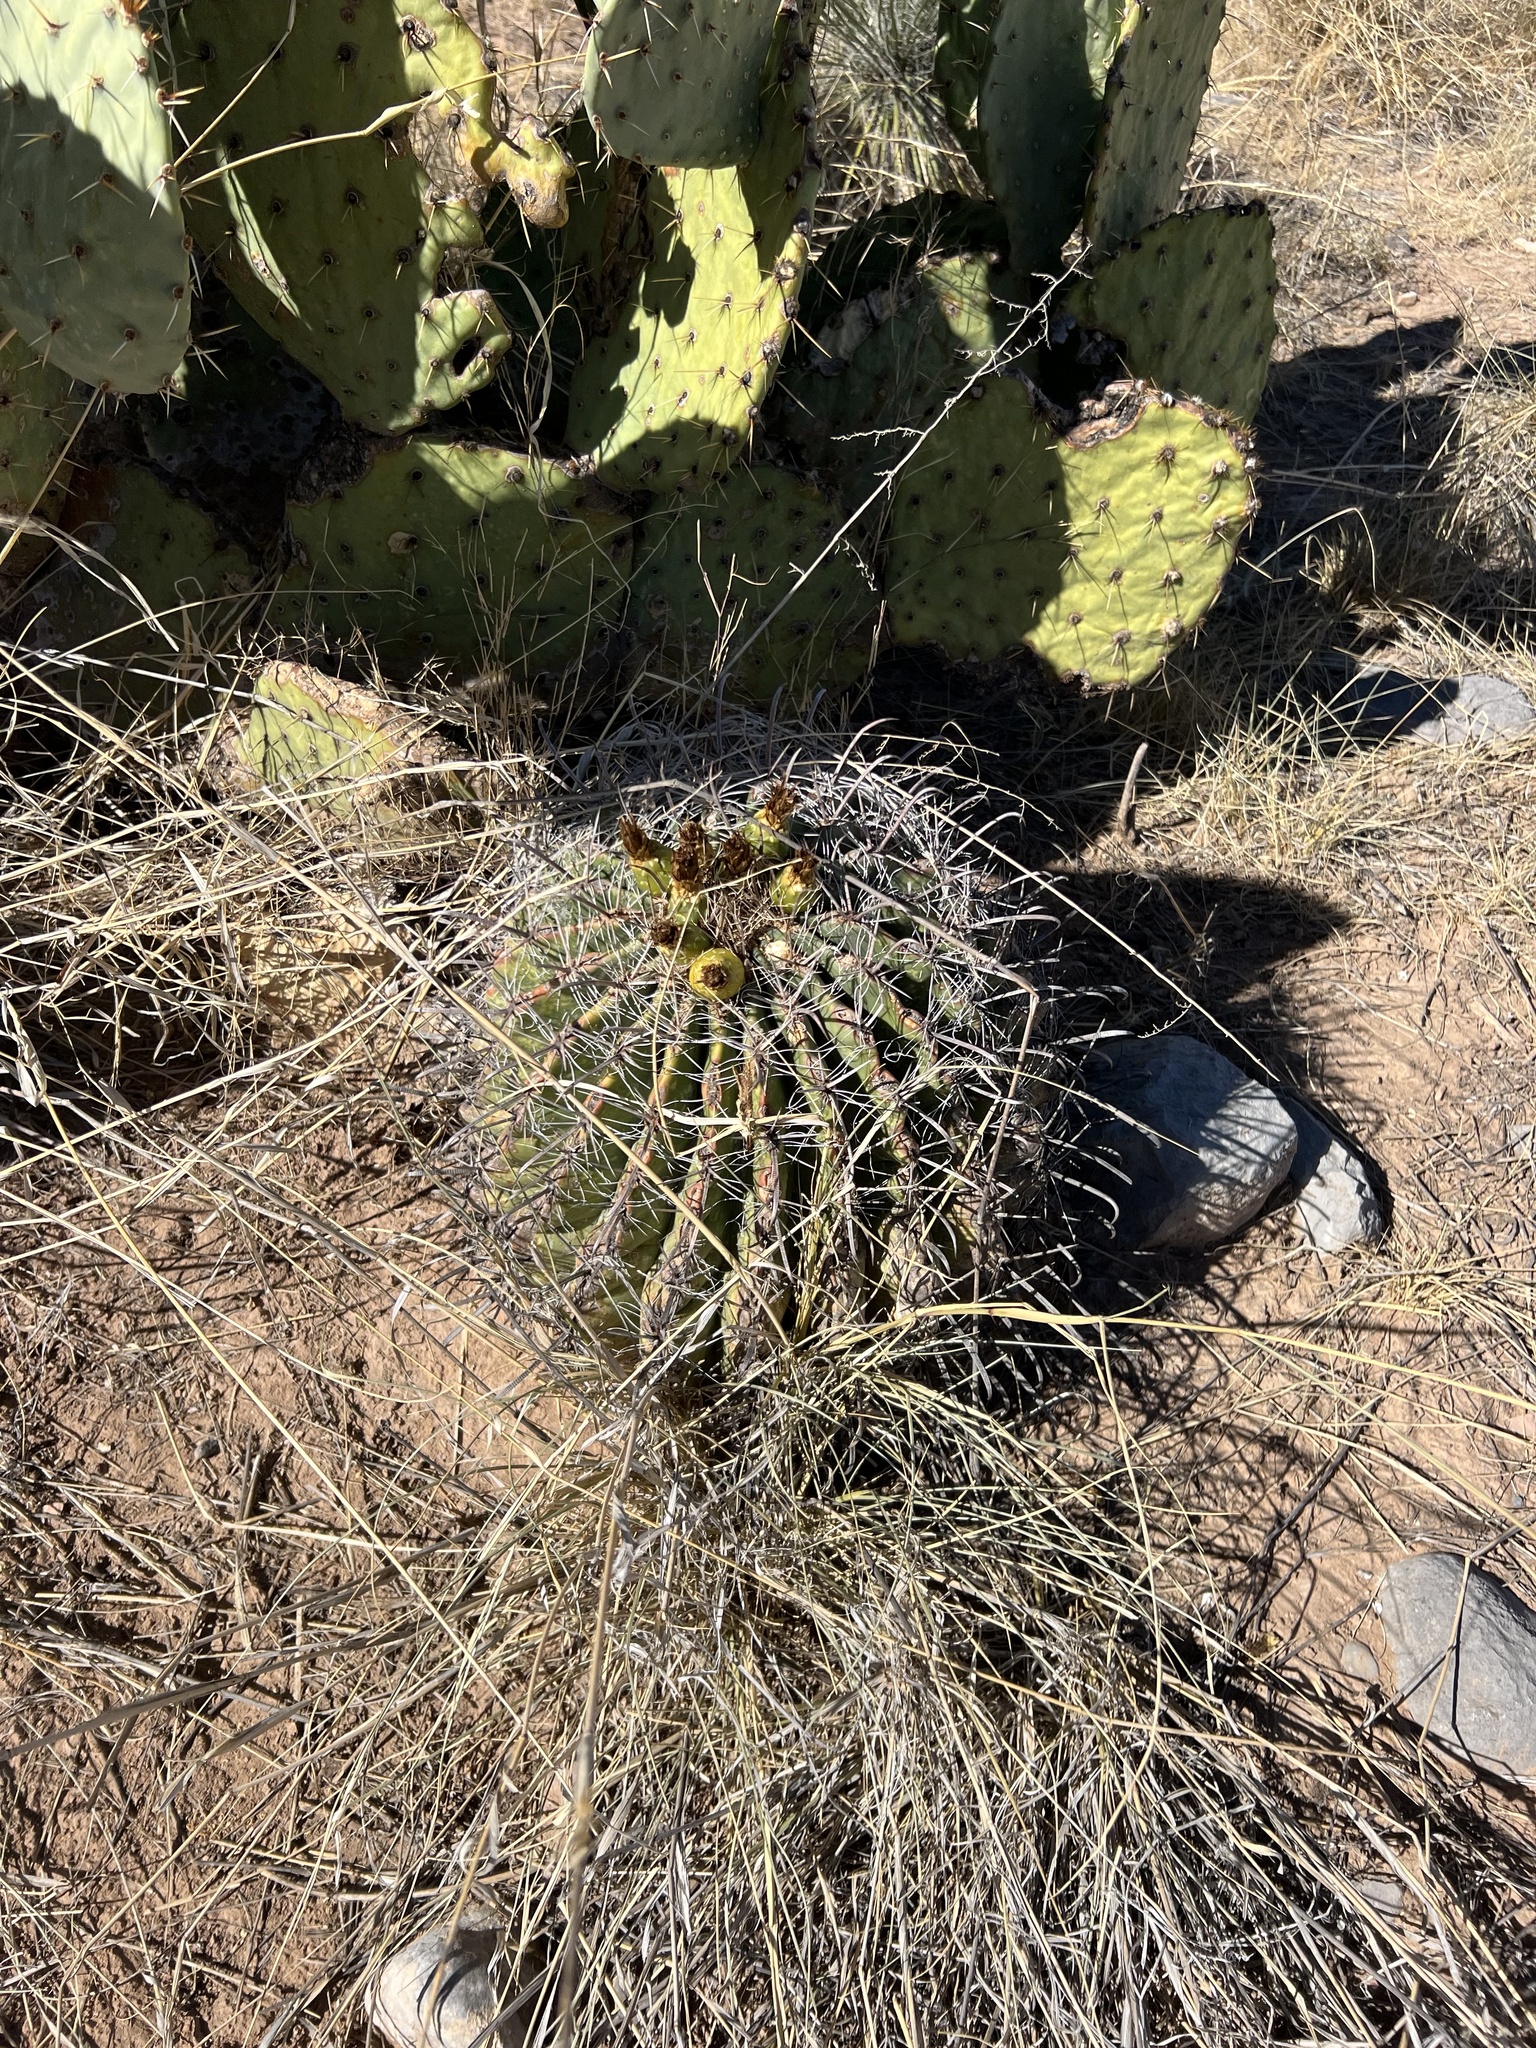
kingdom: Plantae
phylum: Tracheophyta
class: Magnoliopsida
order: Caryophyllales
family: Cactaceae
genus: Ferocactus
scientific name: Ferocactus wislizeni
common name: Candy barrel cactus
